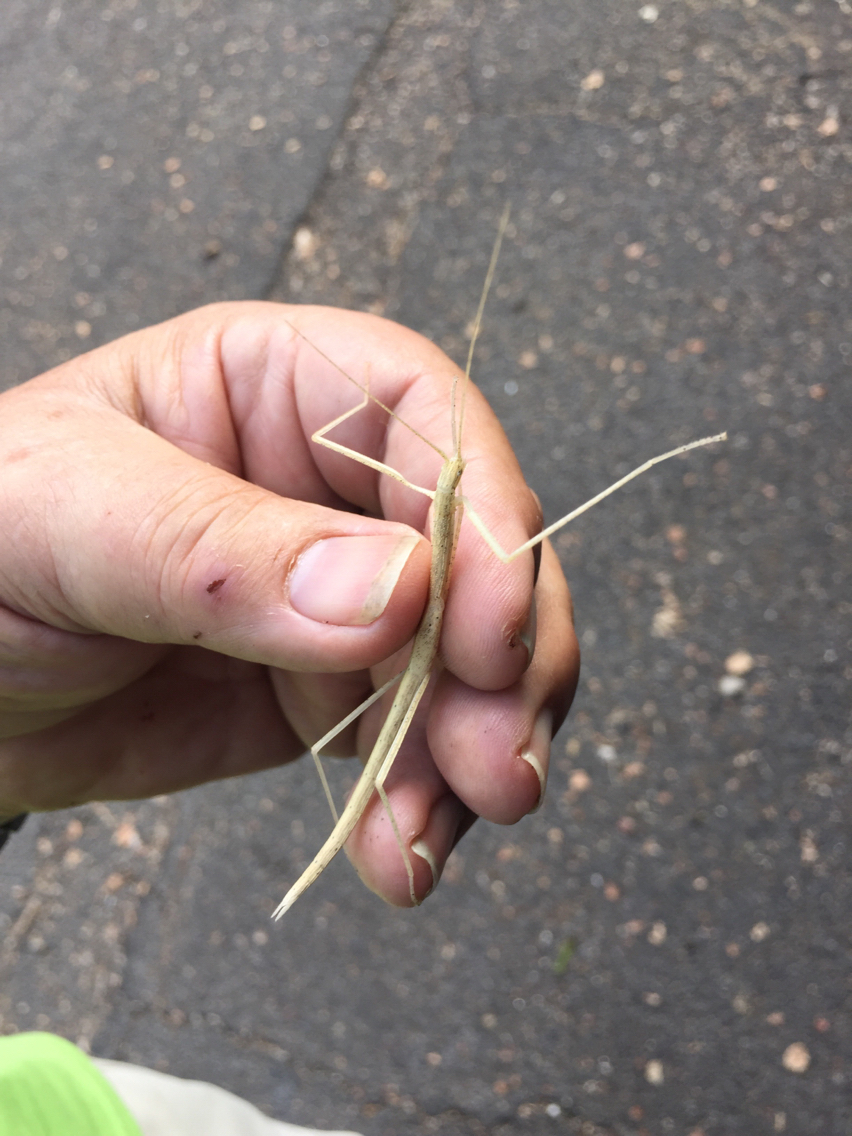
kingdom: Animalia
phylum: Arthropoda
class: Insecta
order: Phasmida
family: Lonchodidae
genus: Sipyloidea
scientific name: Sipyloidea sipylus
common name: Madagascan stick insect
